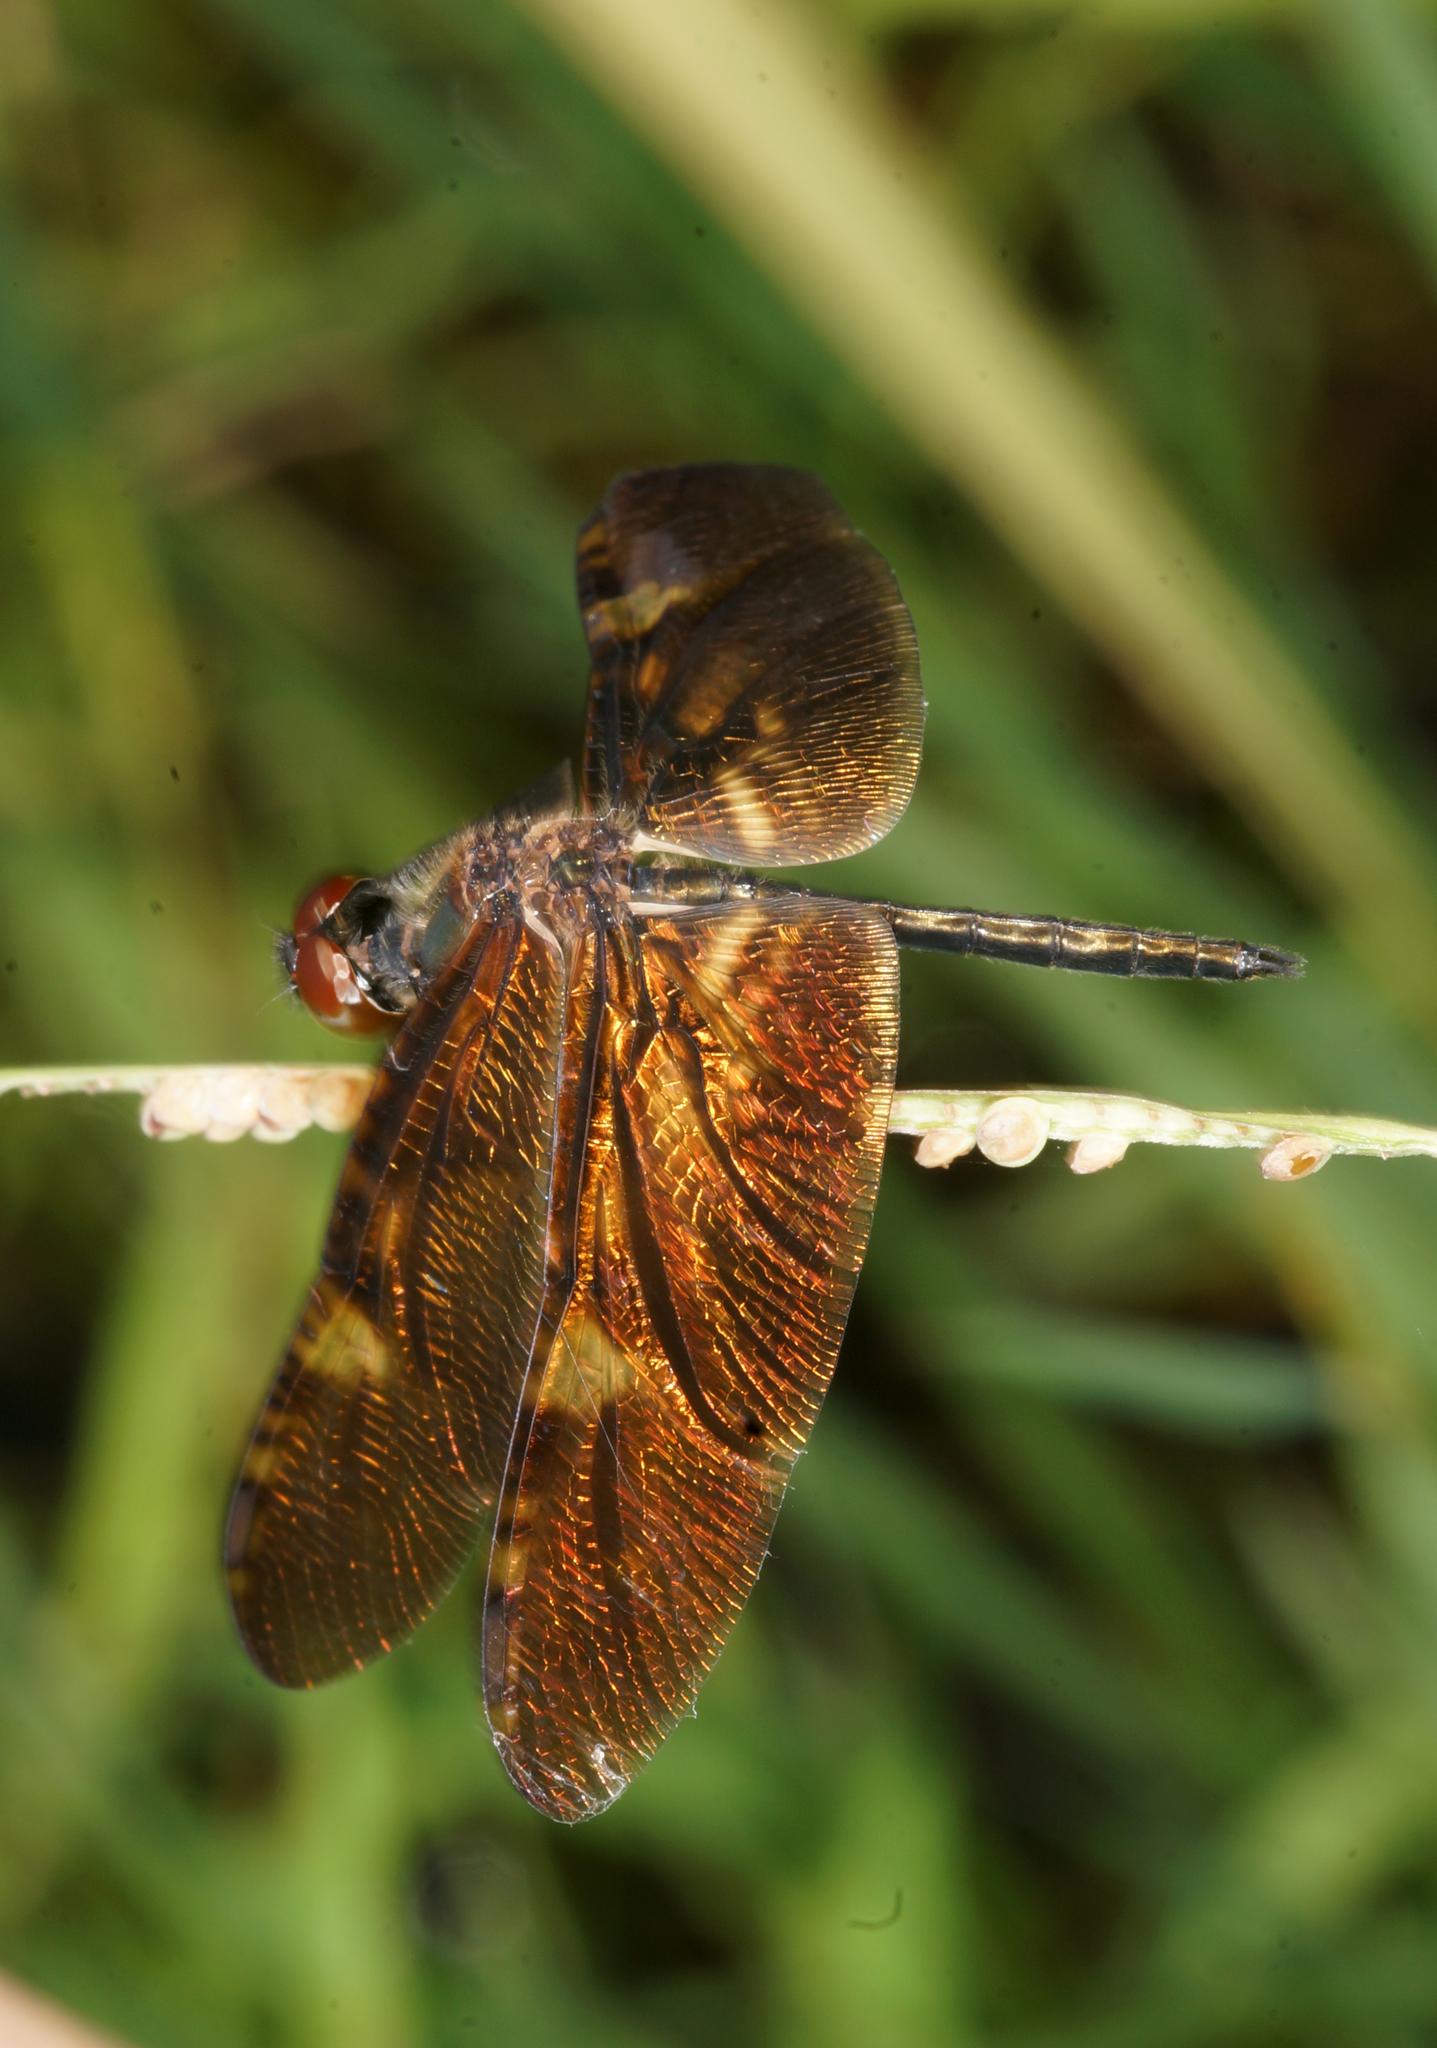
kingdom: Animalia
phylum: Arthropoda
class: Insecta
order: Odonata
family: Libellulidae
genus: Rhyothemis
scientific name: Rhyothemis obsolescens
